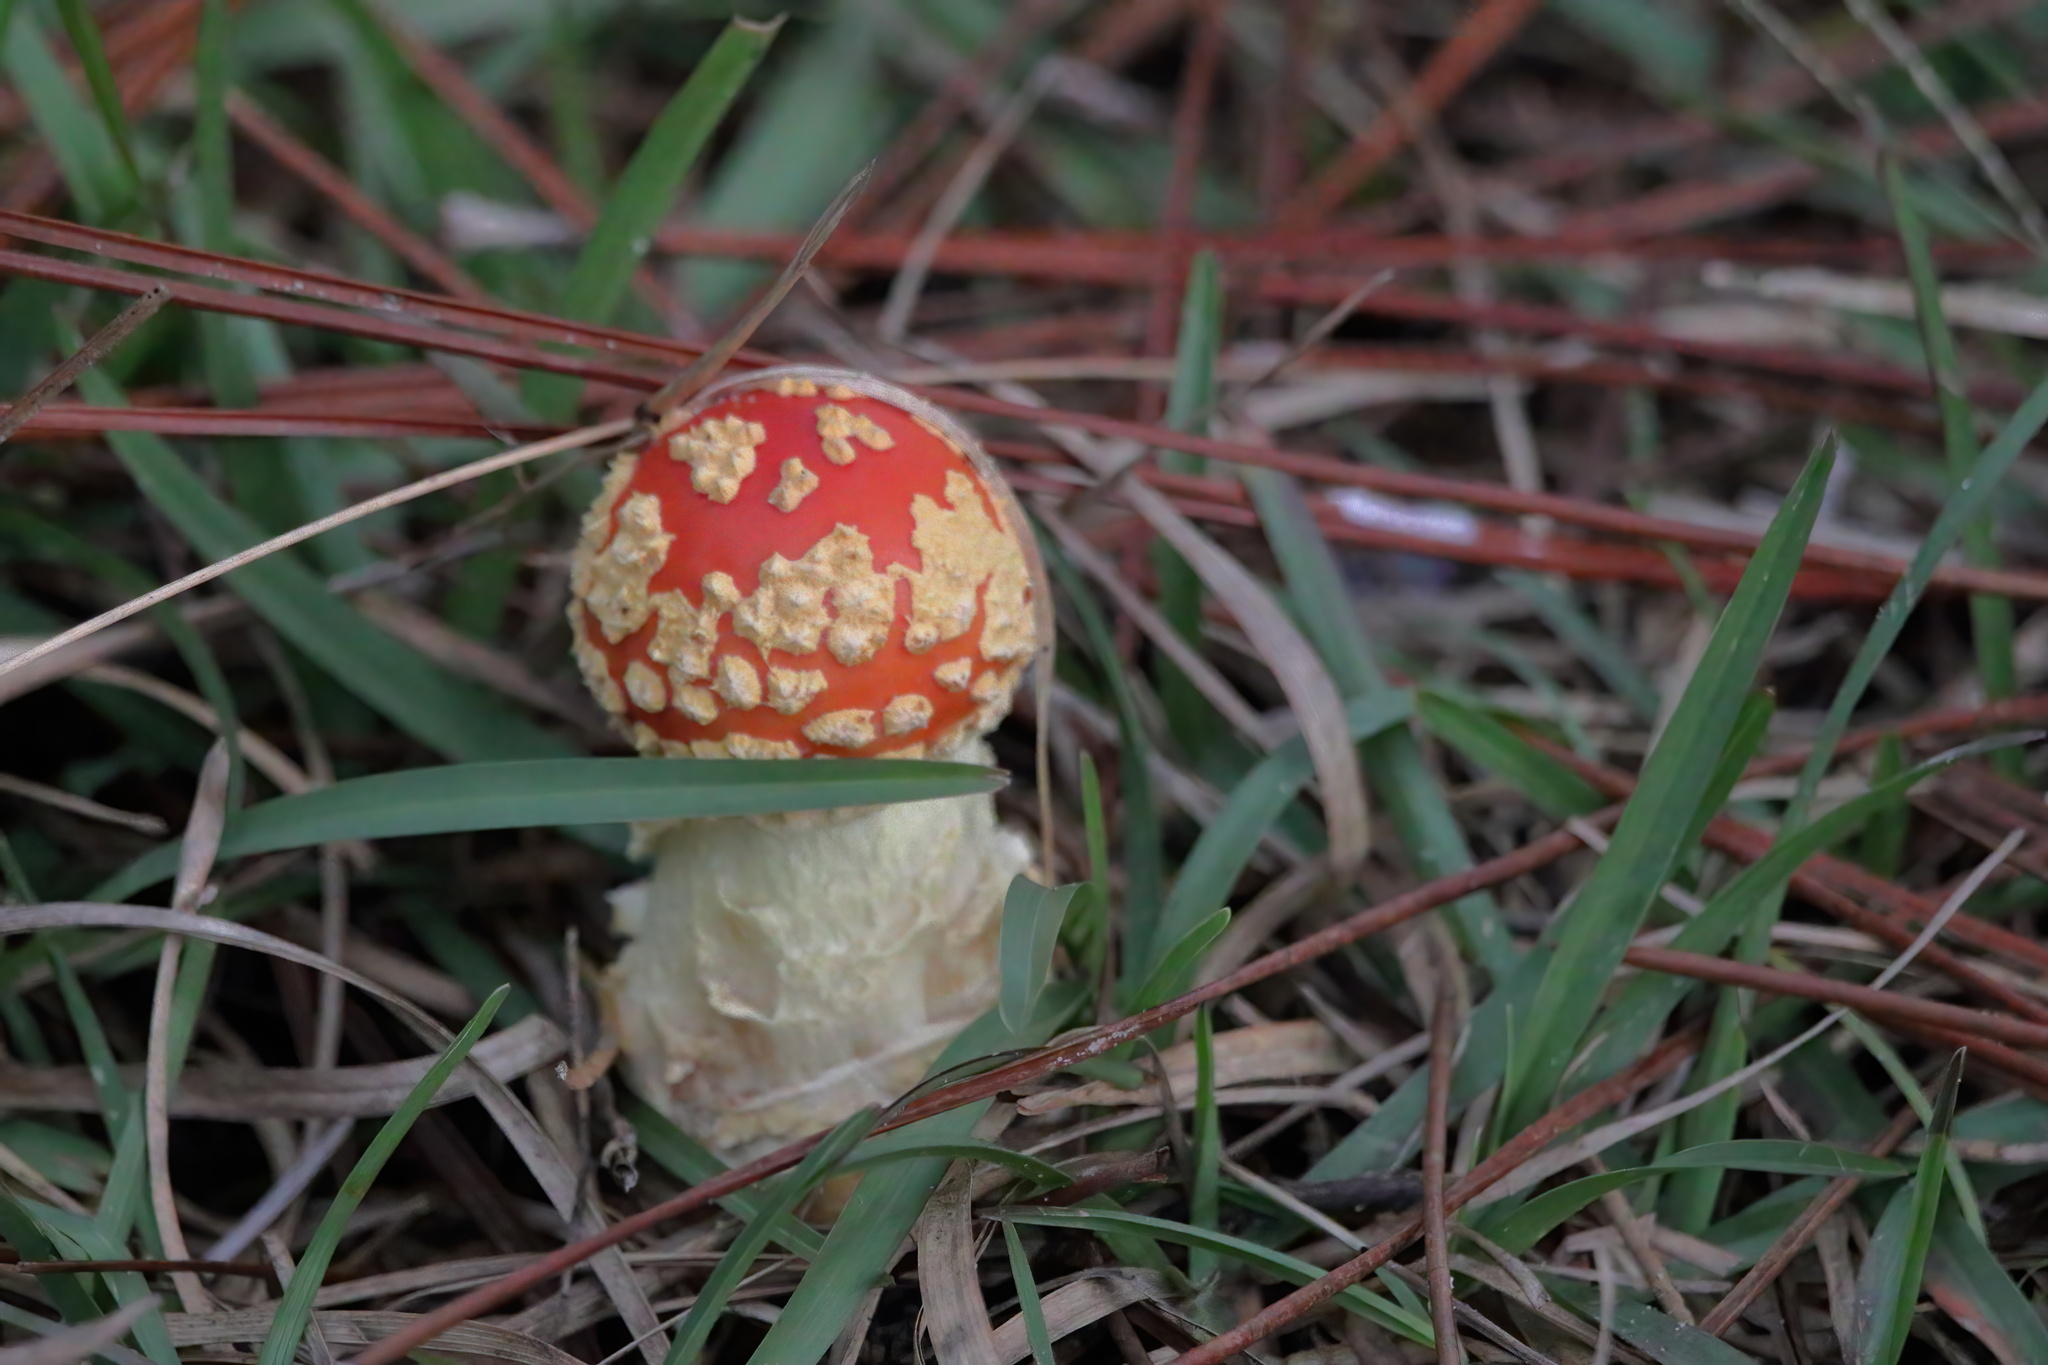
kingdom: Fungi
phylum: Basidiomycota
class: Agaricomycetes
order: Agaricales
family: Amanitaceae
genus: Amanita
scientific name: Amanita persicina
